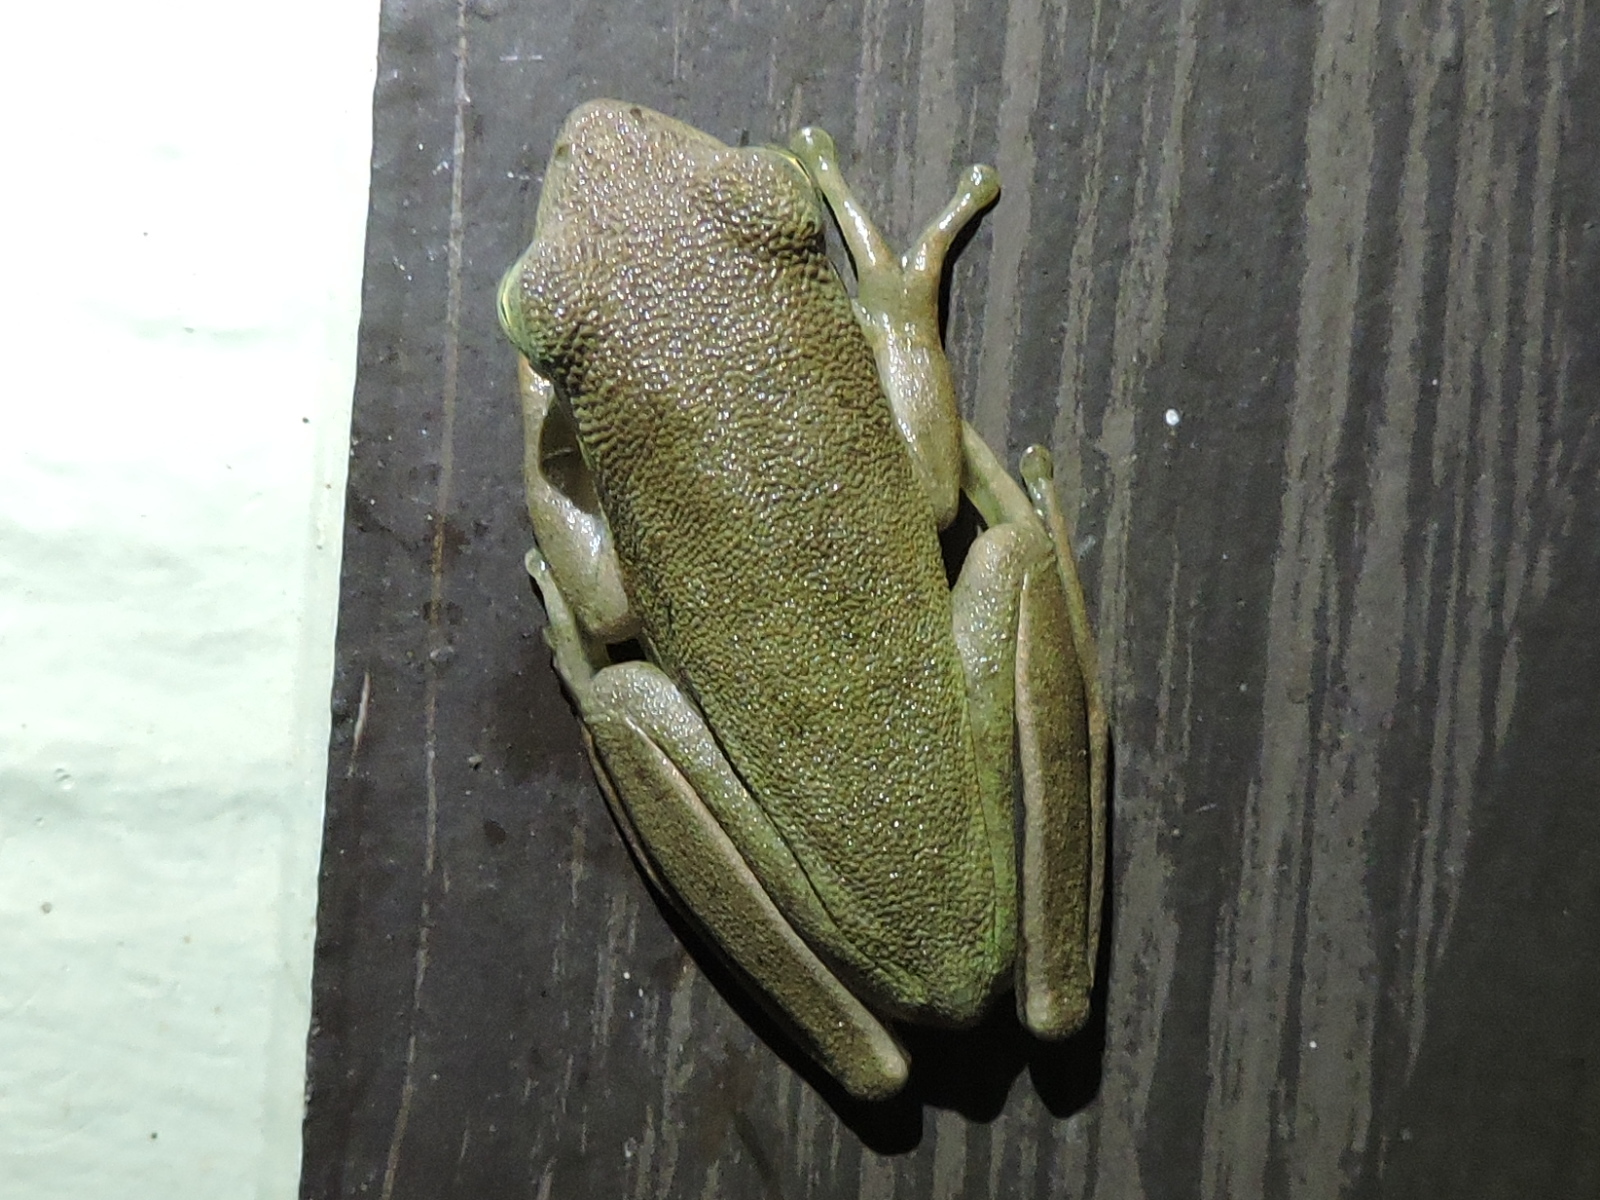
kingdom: Animalia
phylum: Chordata
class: Amphibia
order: Anura
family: Hylidae
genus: Dryophytes
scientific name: Dryophytes squirellus
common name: Squirrel treefrog
